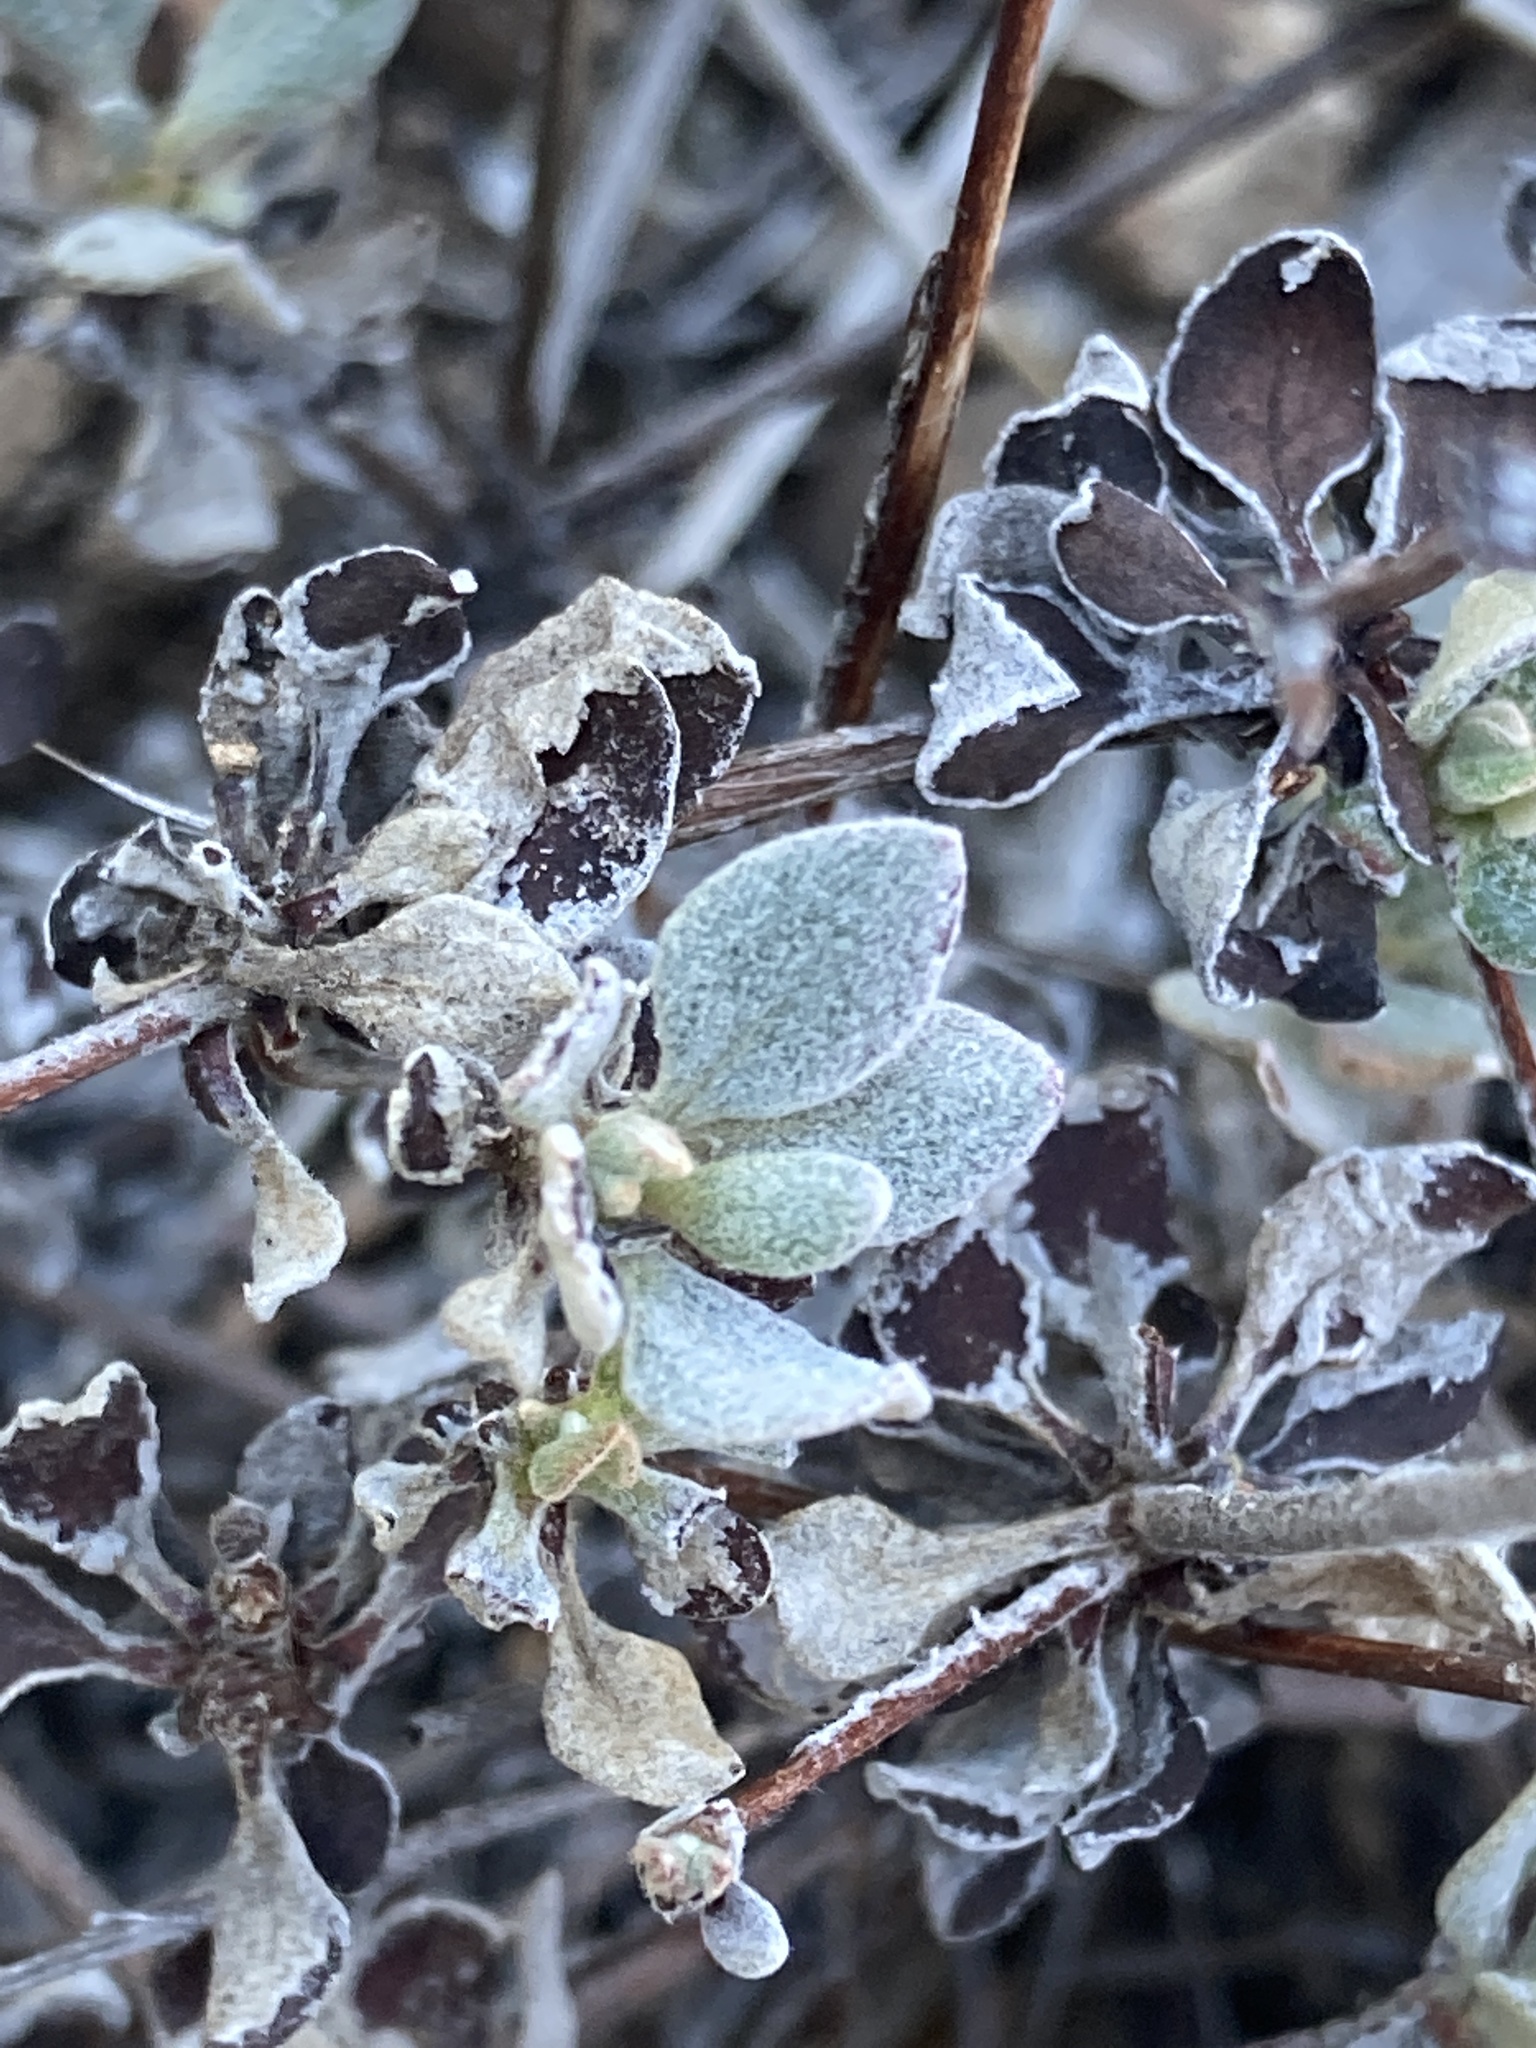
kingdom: Plantae
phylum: Tracheophyta
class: Magnoliopsida
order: Caryophyllales
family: Polygonaceae
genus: Eriogonum
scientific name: Eriogonum umbellatum
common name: Sulfur-buckwheat
